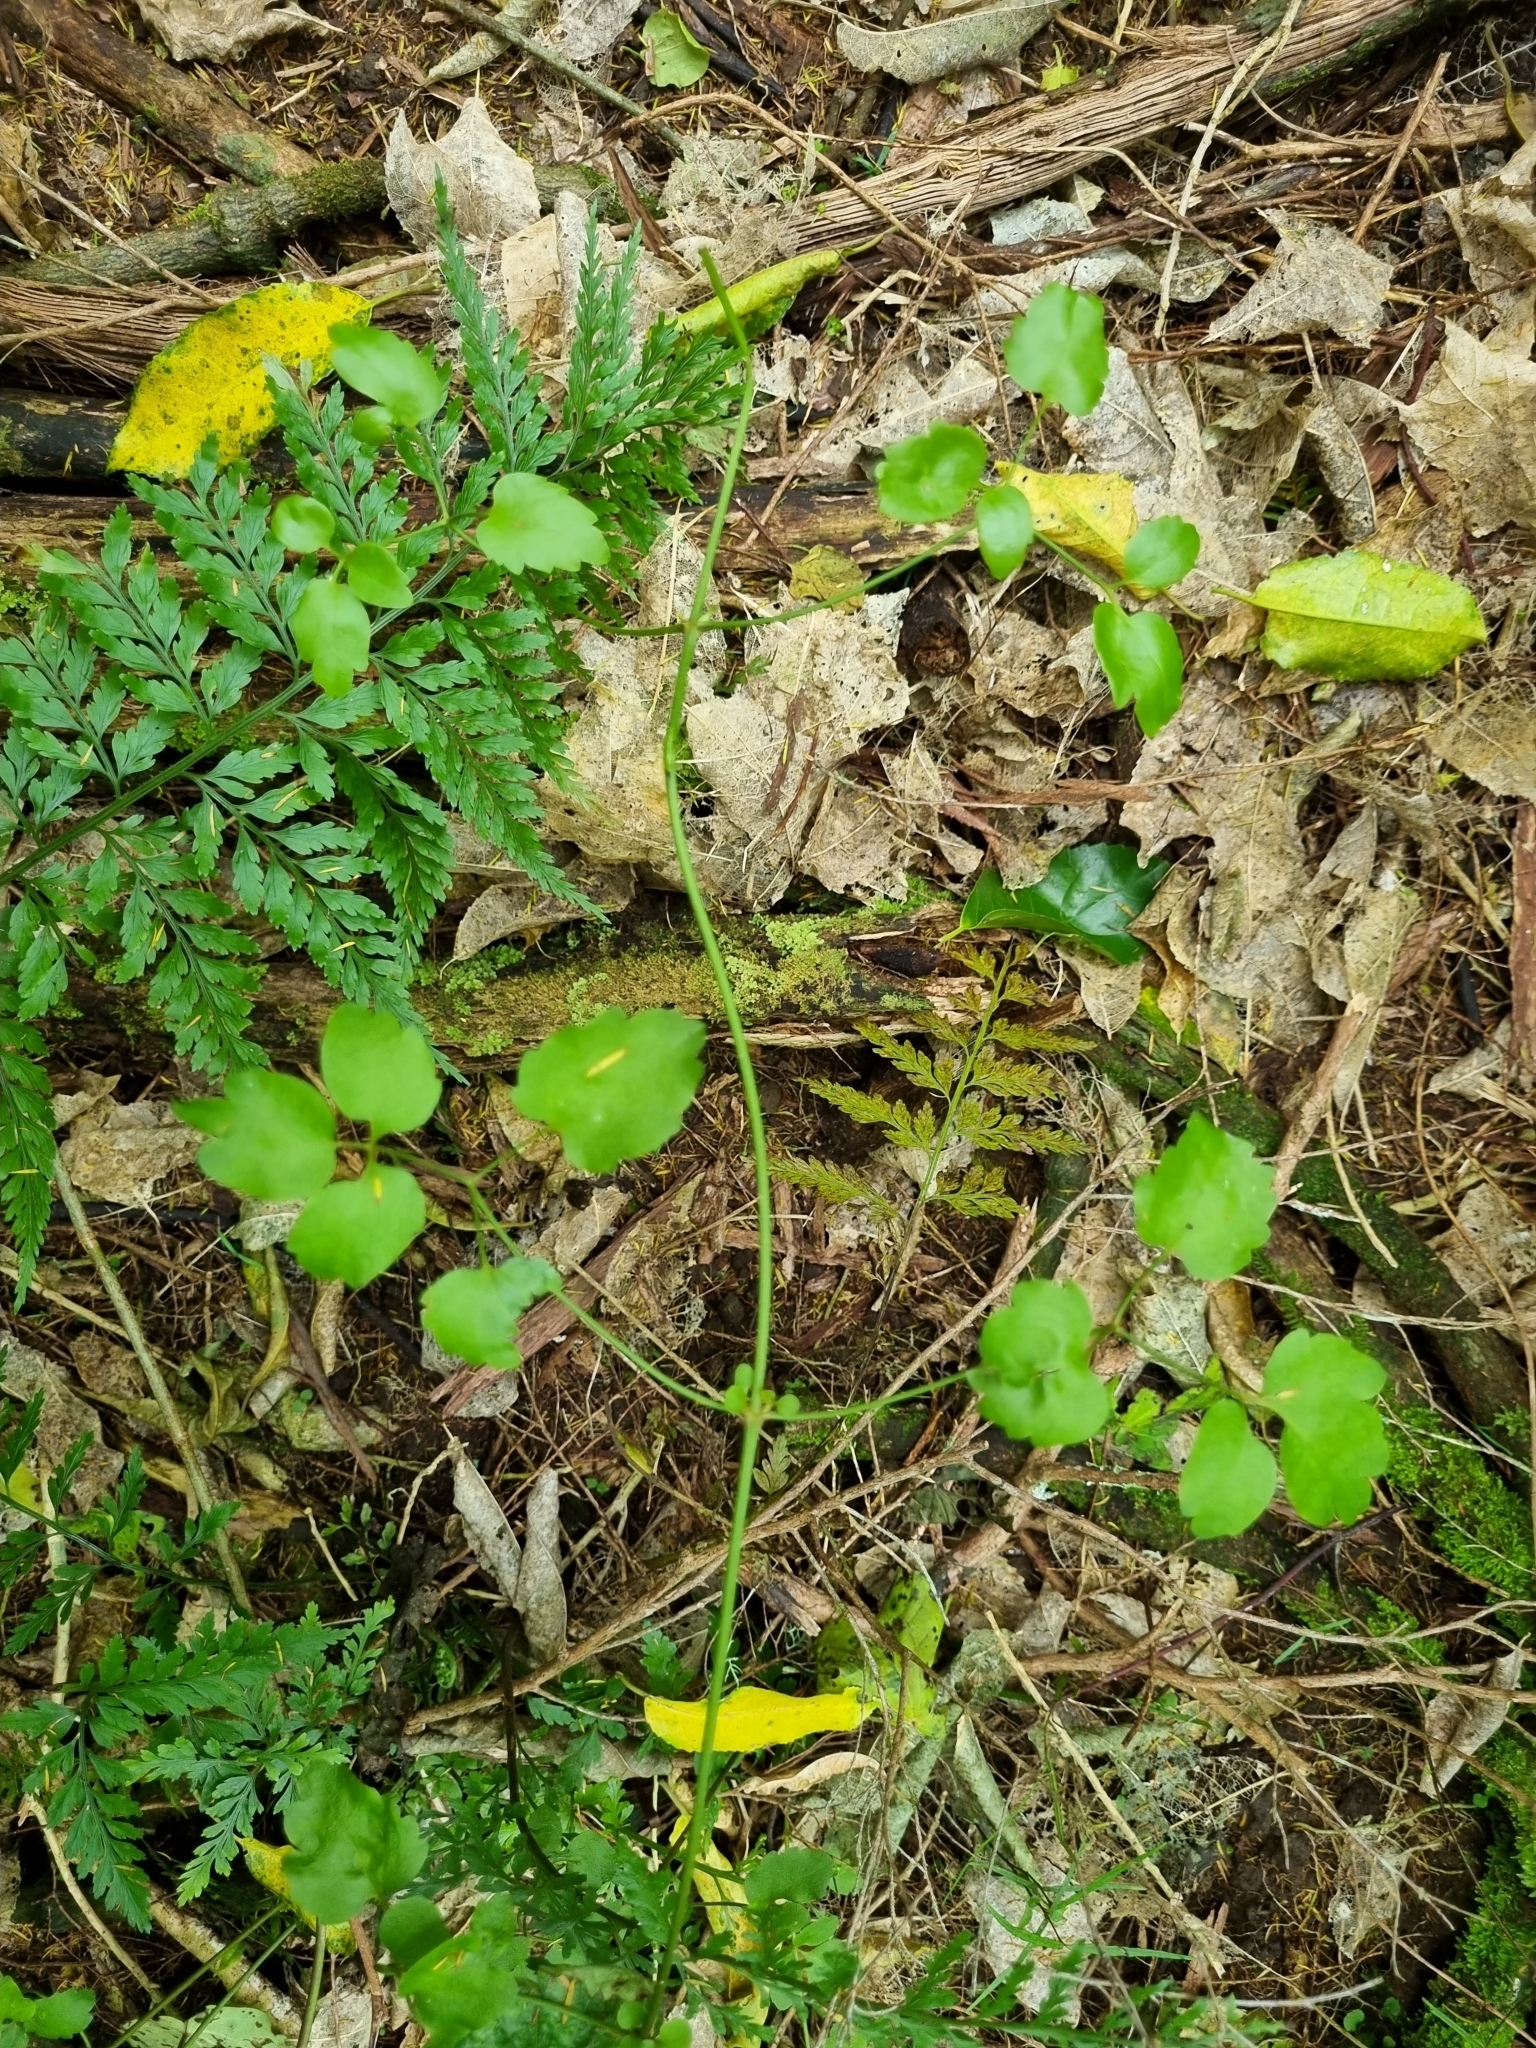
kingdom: Plantae
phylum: Tracheophyta
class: Magnoliopsida
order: Ranunculales
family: Ranunculaceae
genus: Clematis
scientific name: Clematis vitalba
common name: Evergreen clematis
